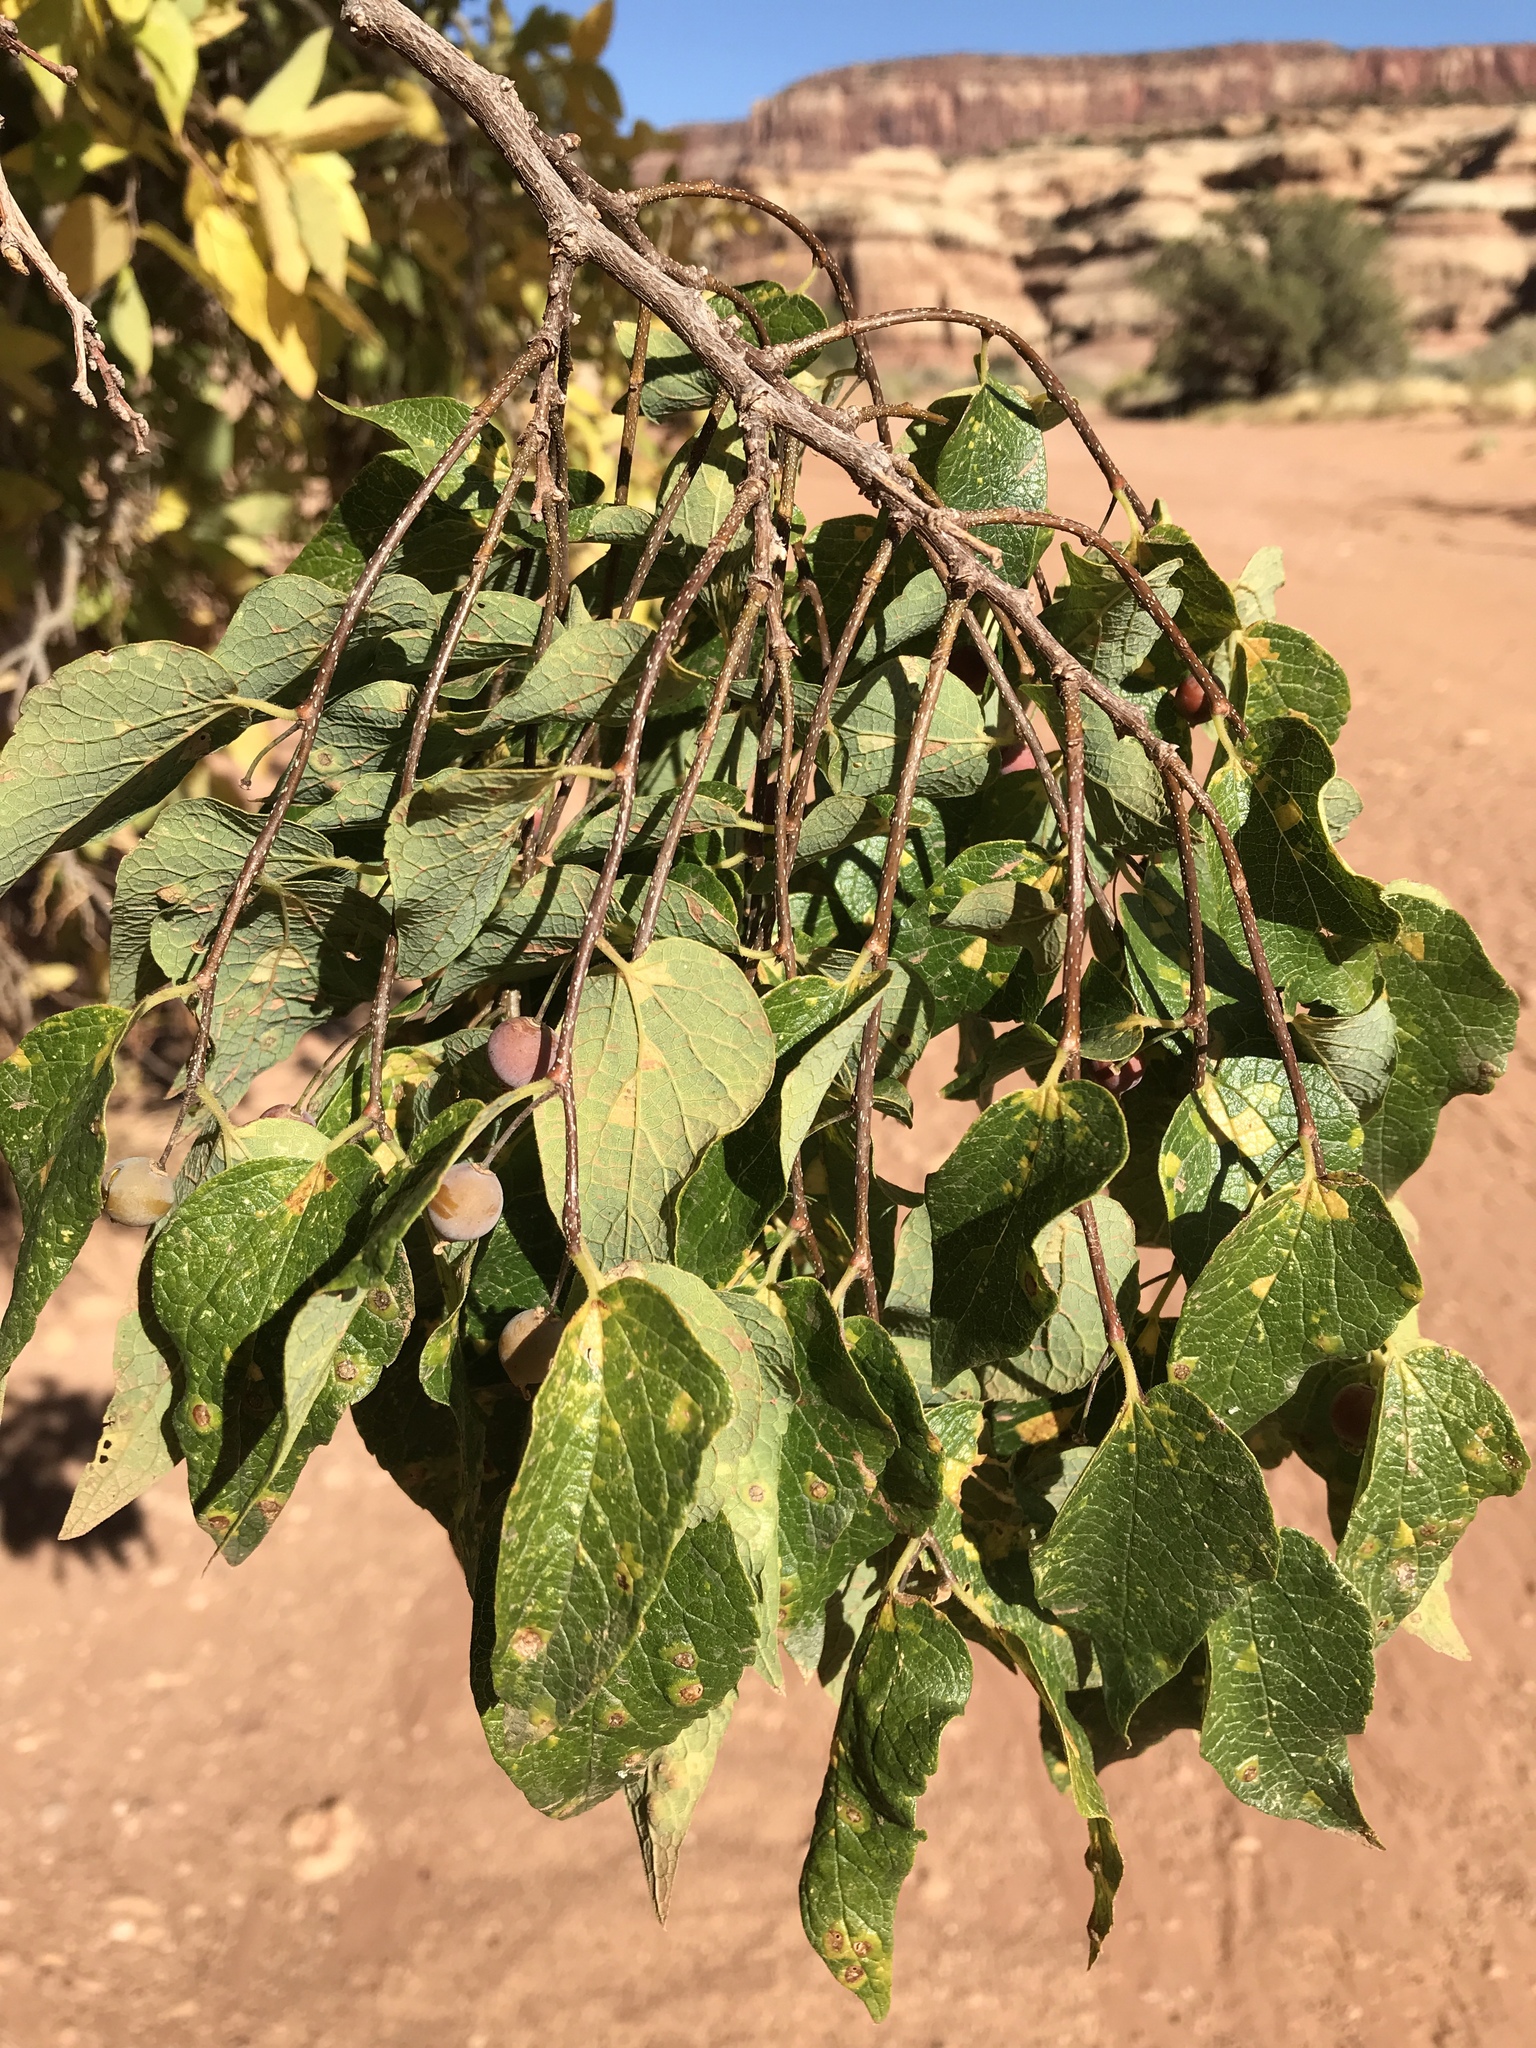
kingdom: Plantae
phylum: Tracheophyta
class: Magnoliopsida
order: Rosales
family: Cannabaceae
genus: Celtis
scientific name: Celtis reticulata
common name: Netleaf hackberry
